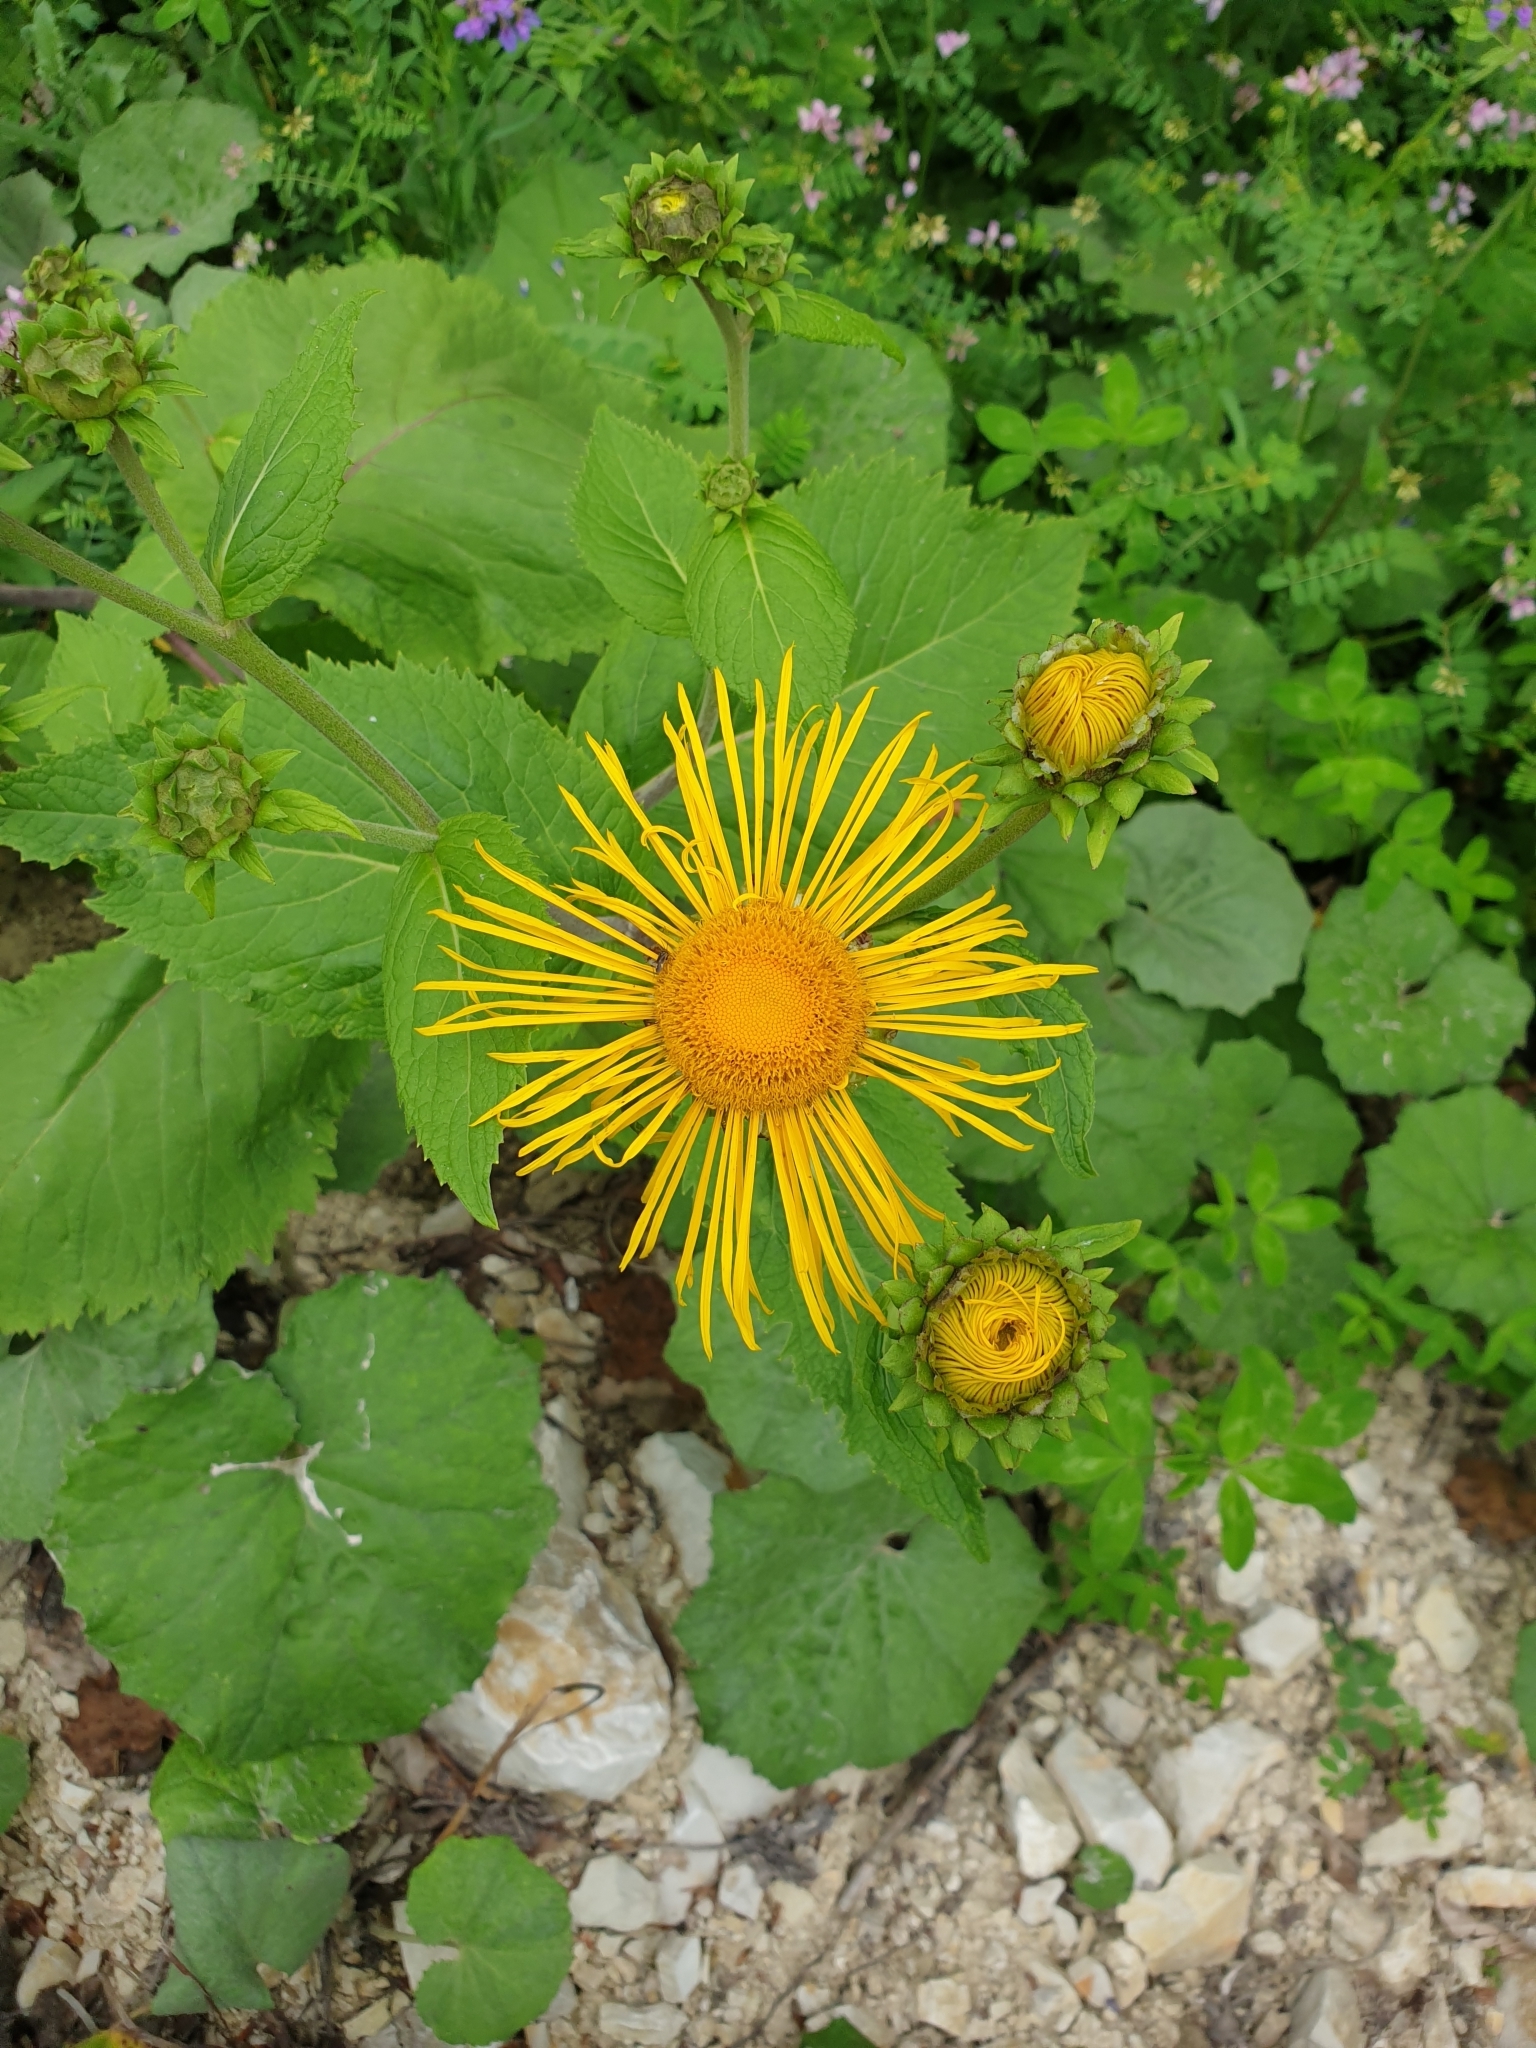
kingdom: Plantae
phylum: Tracheophyta
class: Magnoliopsida
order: Asterales
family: Asteraceae
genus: Telekia
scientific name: Telekia speciosa
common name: Yellow oxeye
